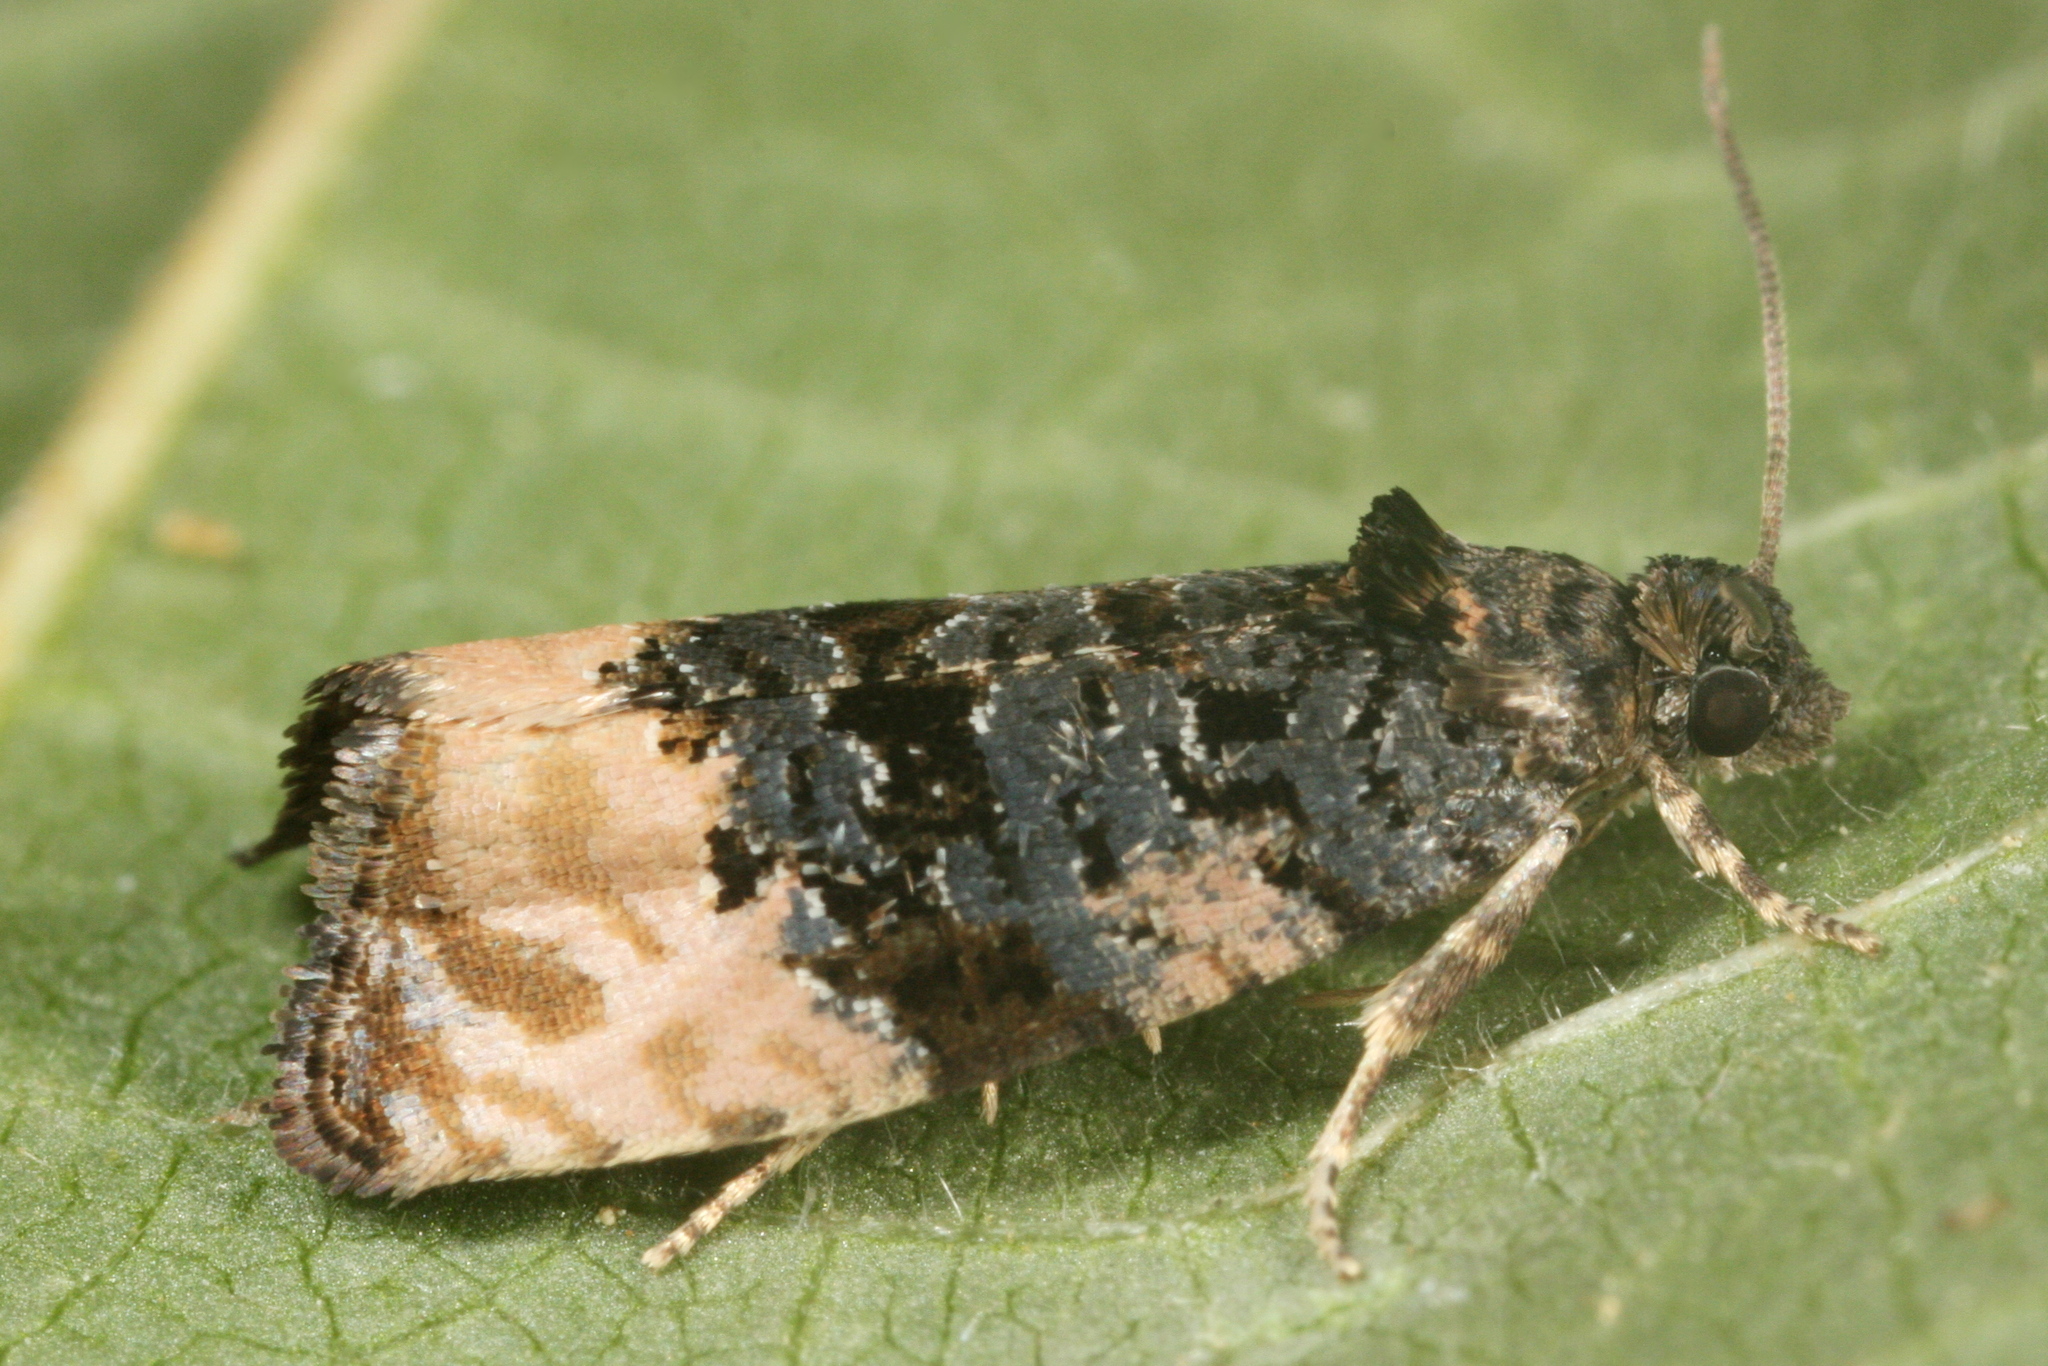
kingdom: Animalia
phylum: Arthropoda
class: Insecta
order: Lepidoptera
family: Tortricidae
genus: Metendothenia
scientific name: Metendothenia atropunctana
